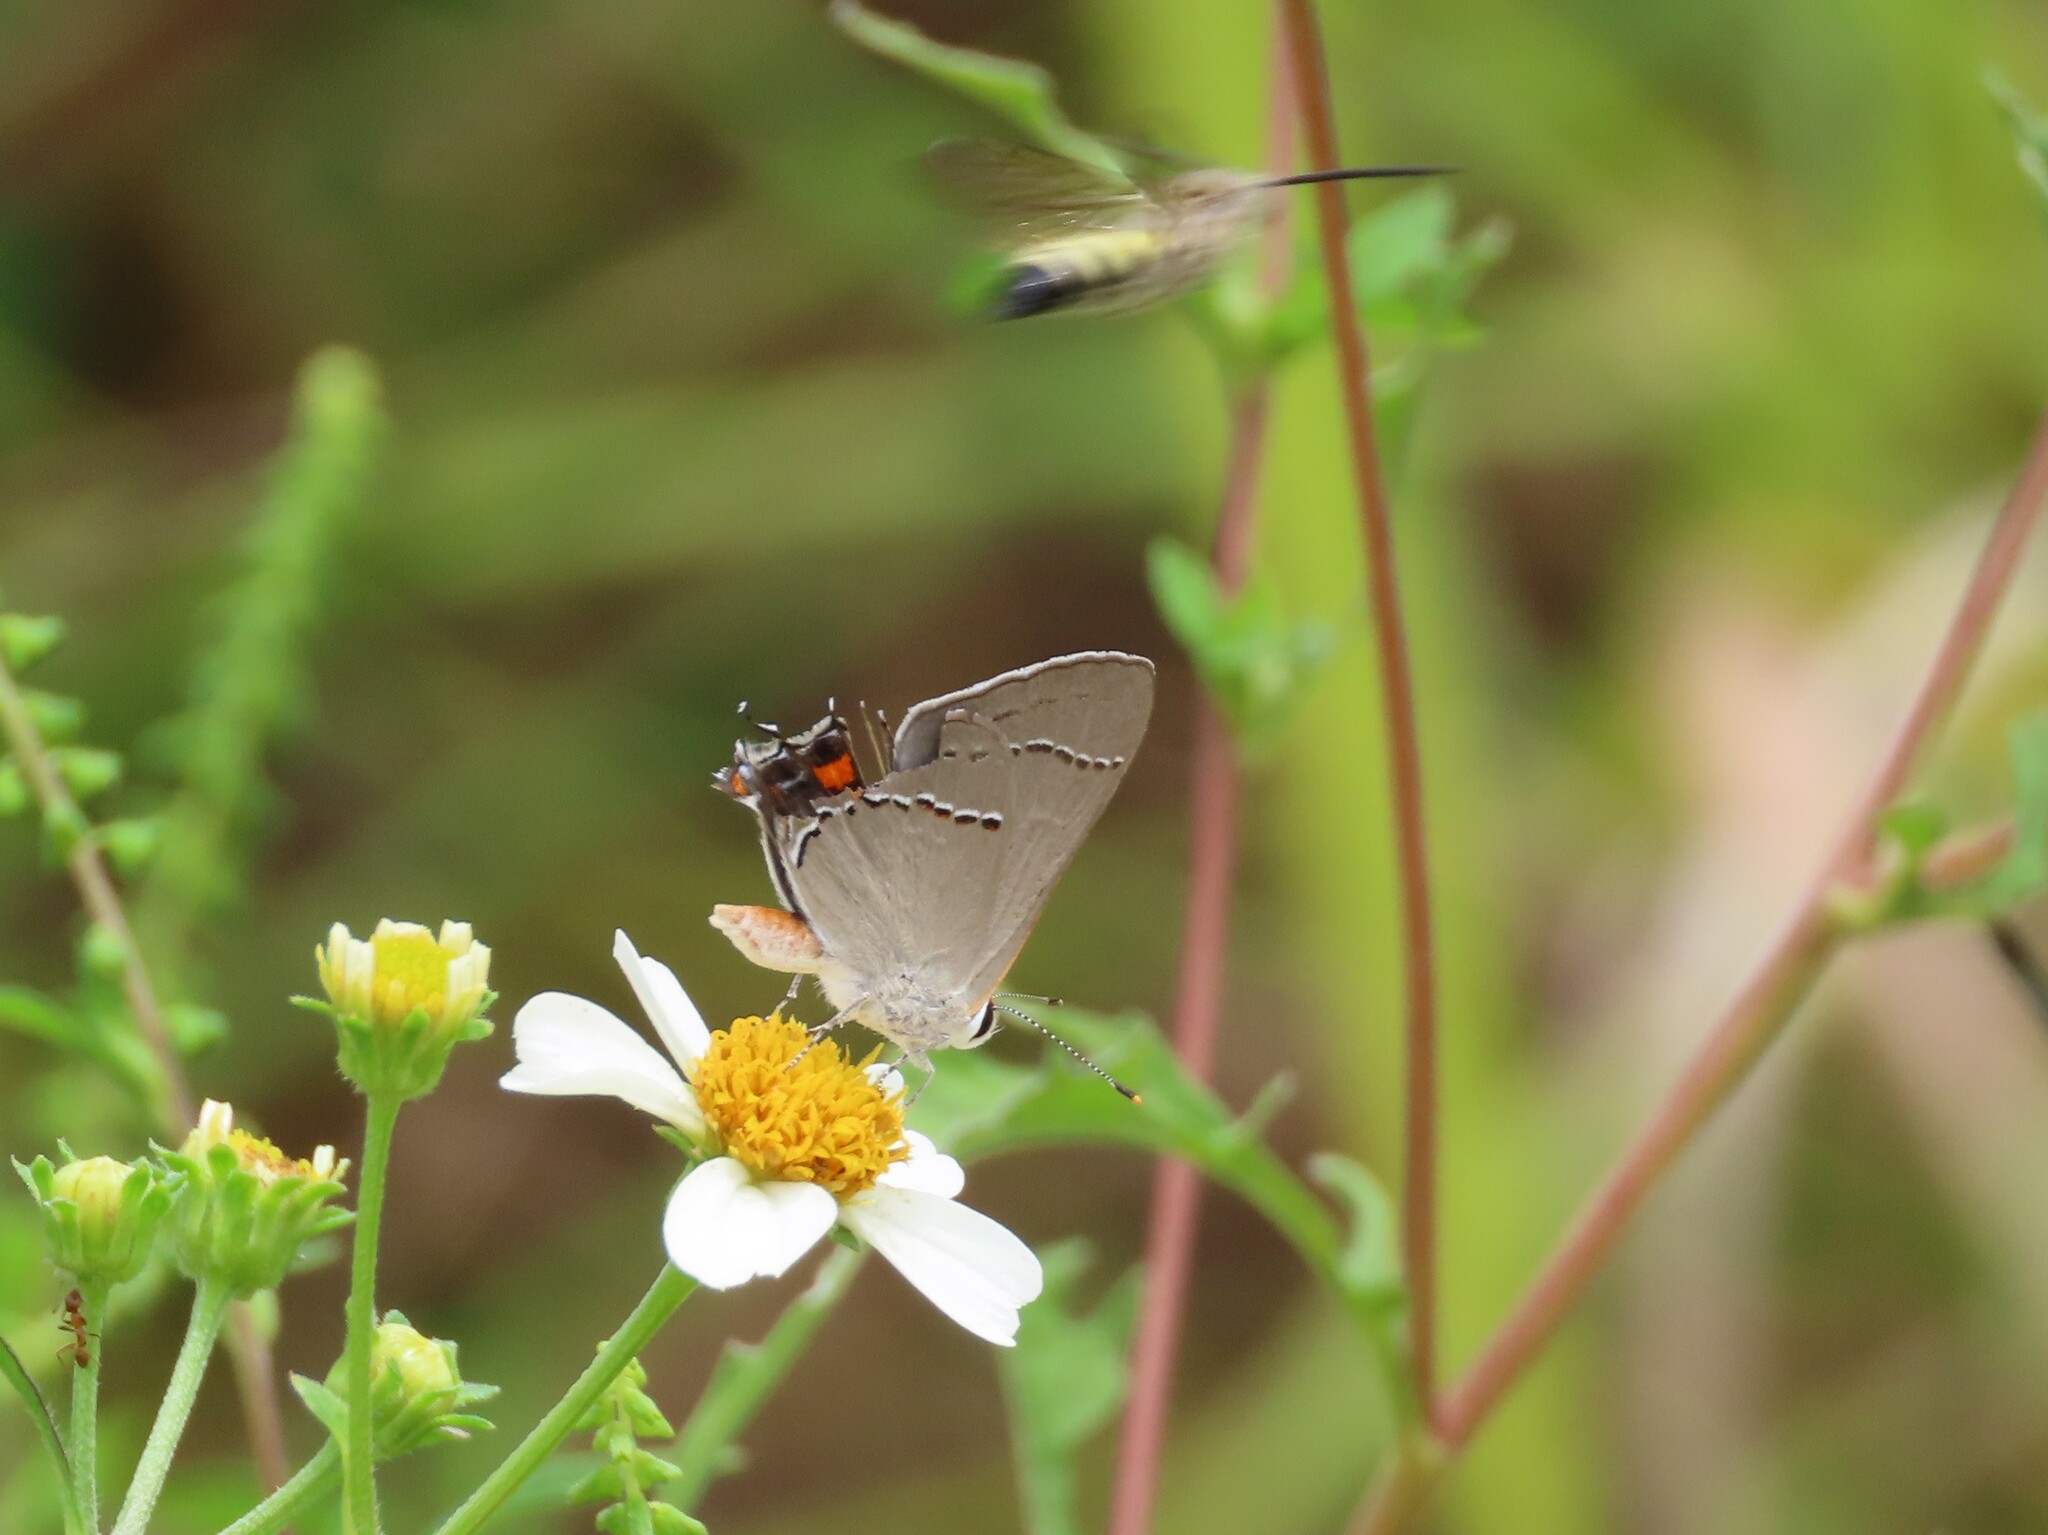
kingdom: Animalia
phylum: Arthropoda
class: Insecta
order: Lepidoptera
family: Lycaenidae
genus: Strymon
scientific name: Strymon melinus
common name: Gray hairstreak
